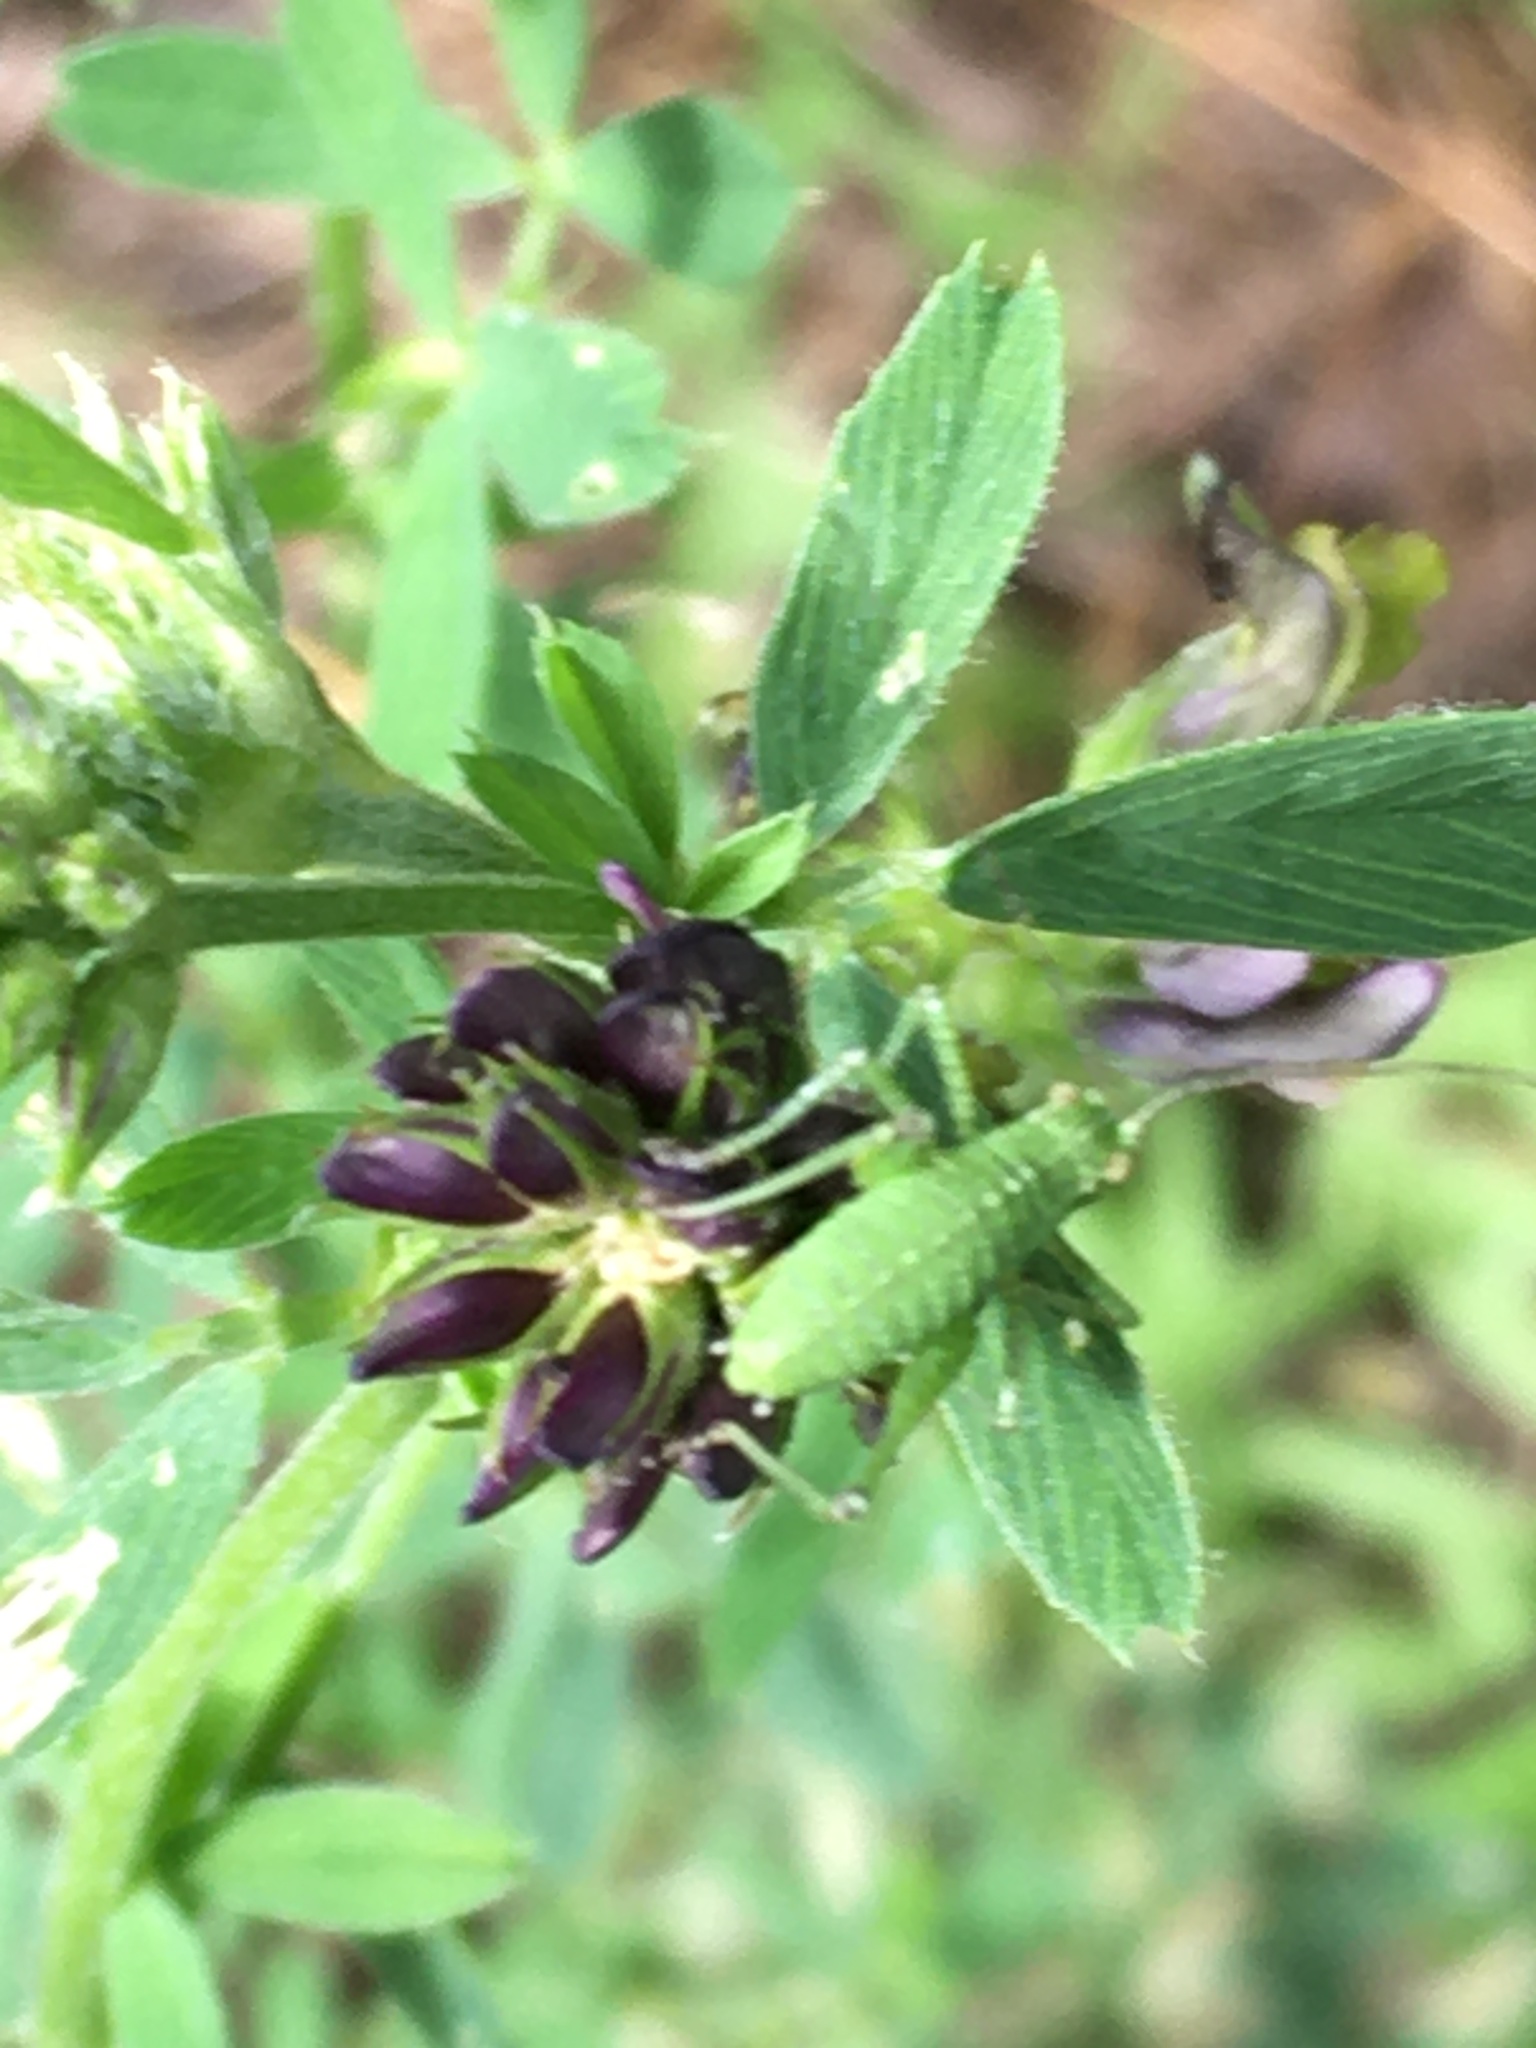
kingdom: Animalia
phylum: Arthropoda
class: Insecta
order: Orthoptera
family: Tettigoniidae
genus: Leptophyes
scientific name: Leptophyes punctatissima
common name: Speckled bush-cricket
